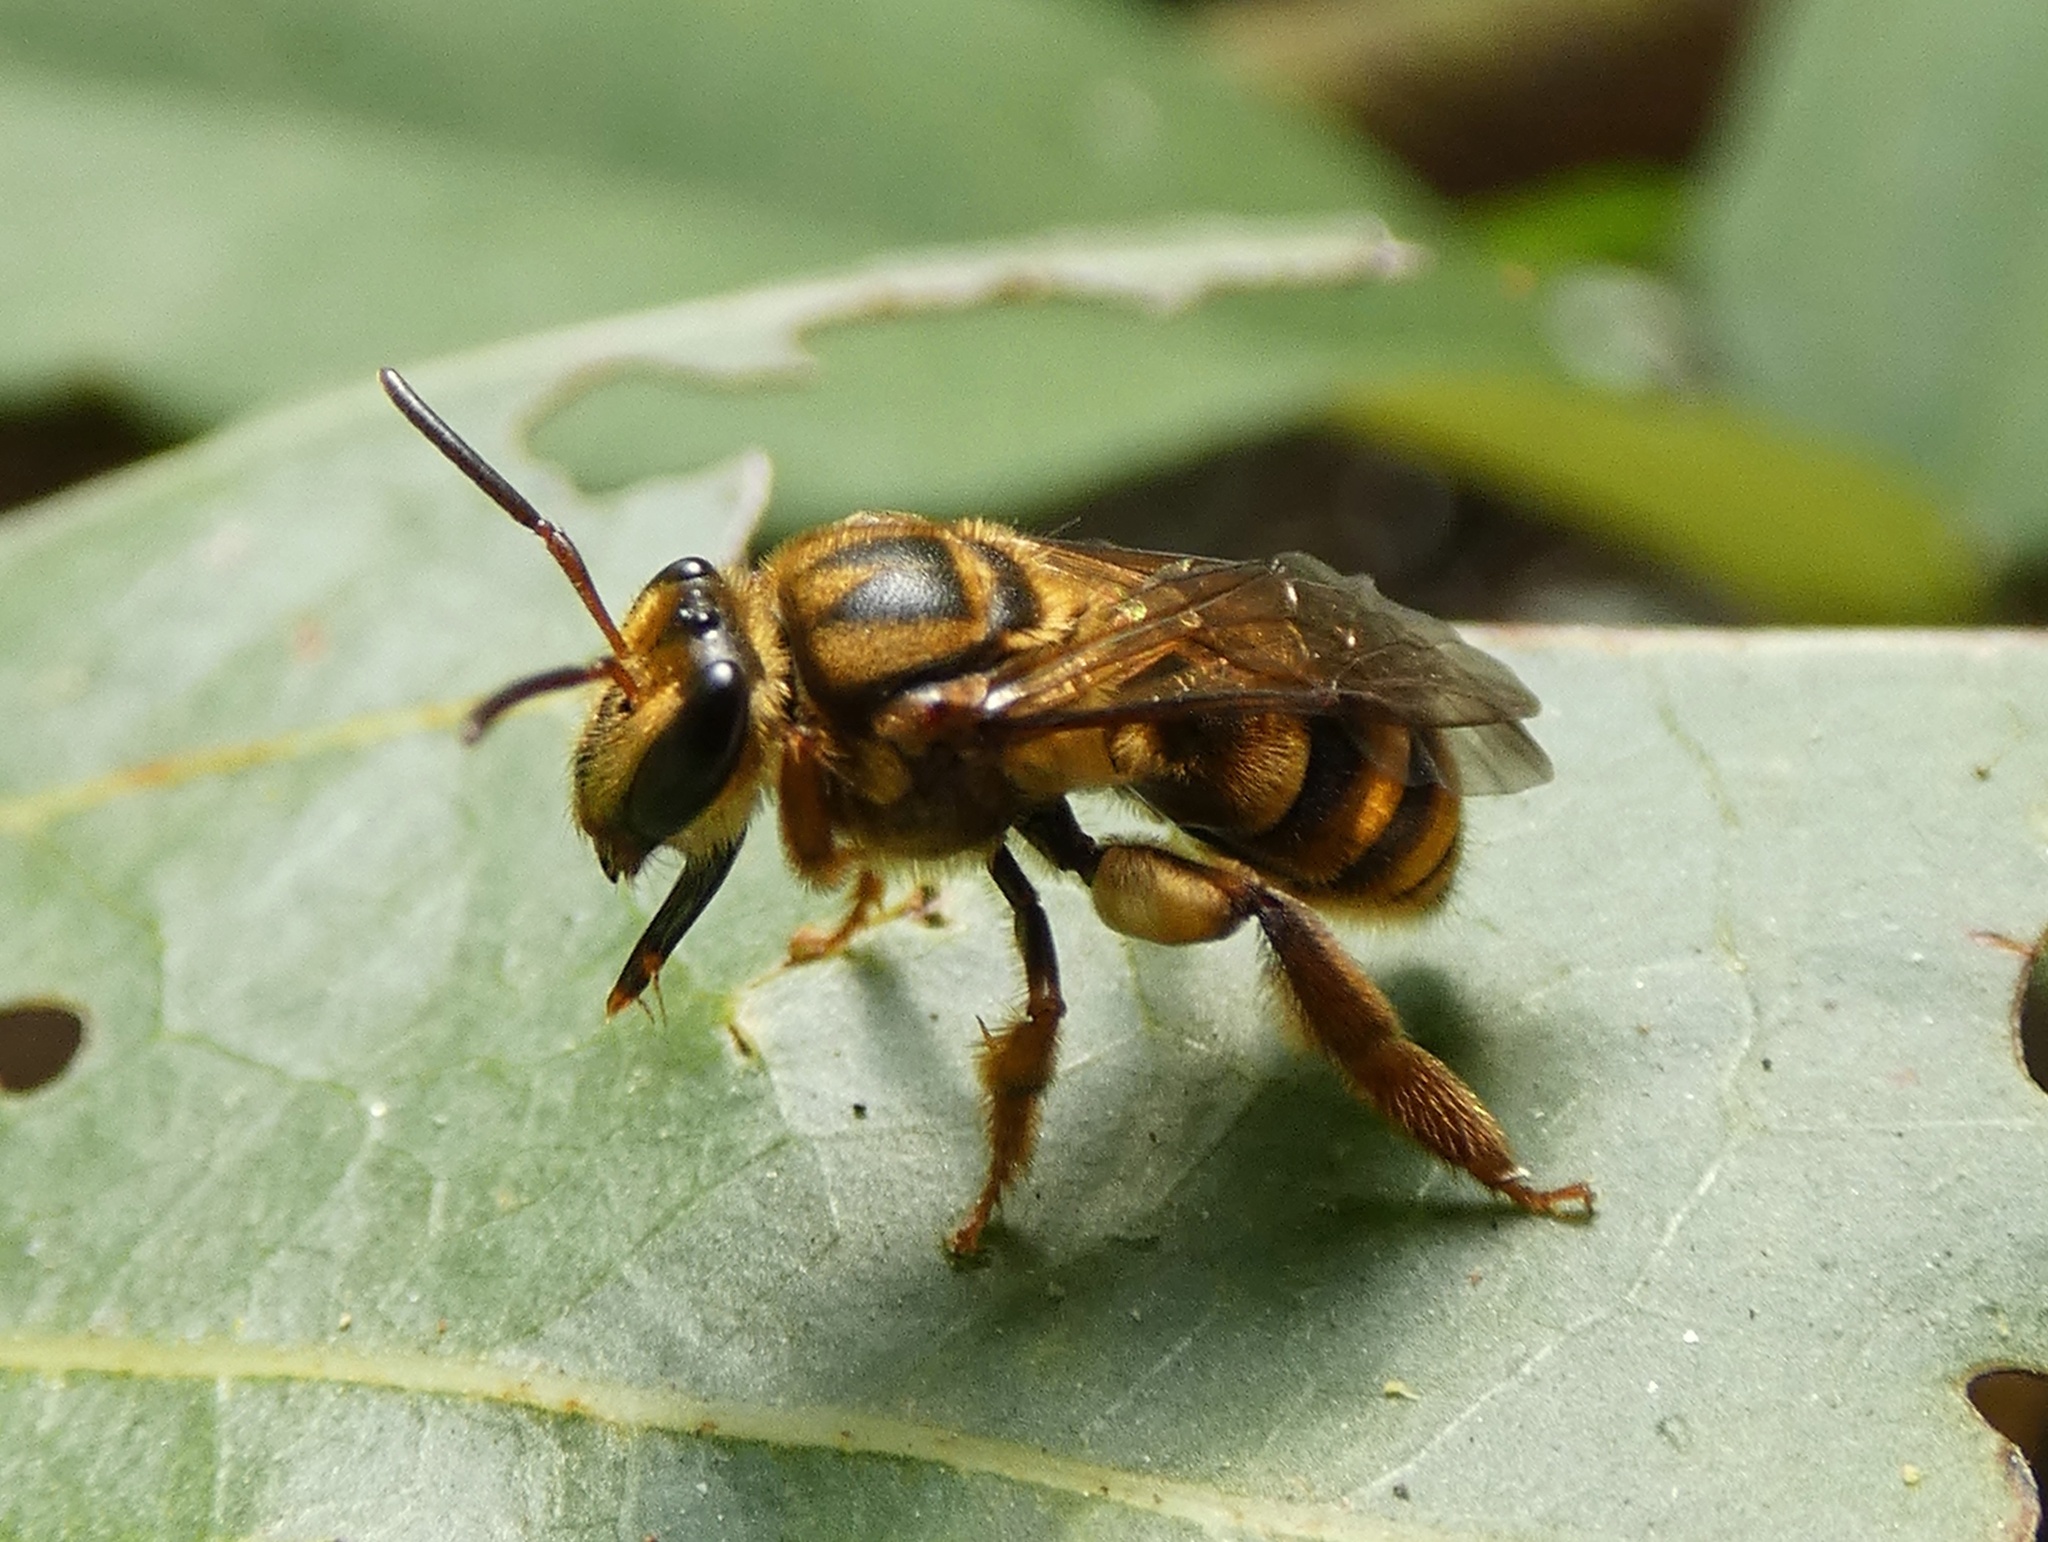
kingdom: Animalia
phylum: Arthropoda
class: Insecta
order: Hymenoptera
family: Halictidae
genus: Mellitidia
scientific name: Mellitidia tomentifera
